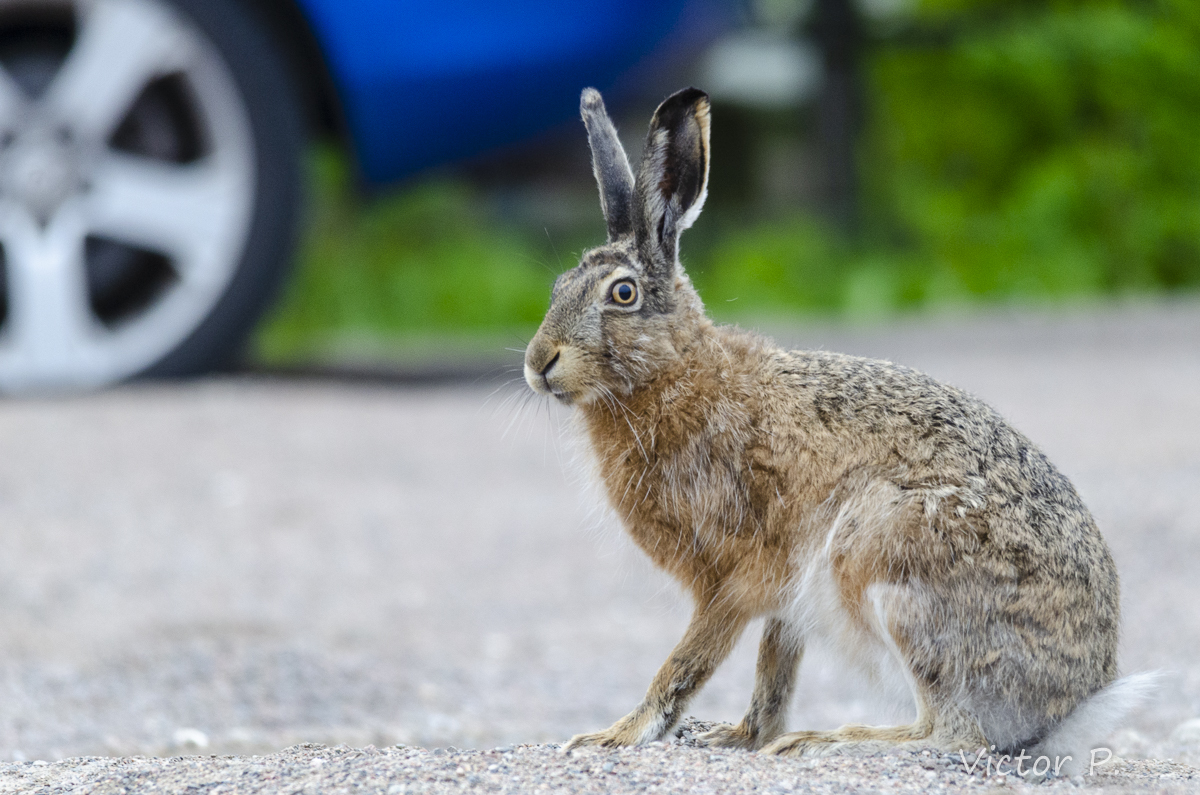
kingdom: Animalia
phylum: Chordata
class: Mammalia
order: Lagomorpha
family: Leporidae
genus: Lepus
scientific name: Lepus europaeus
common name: European hare
